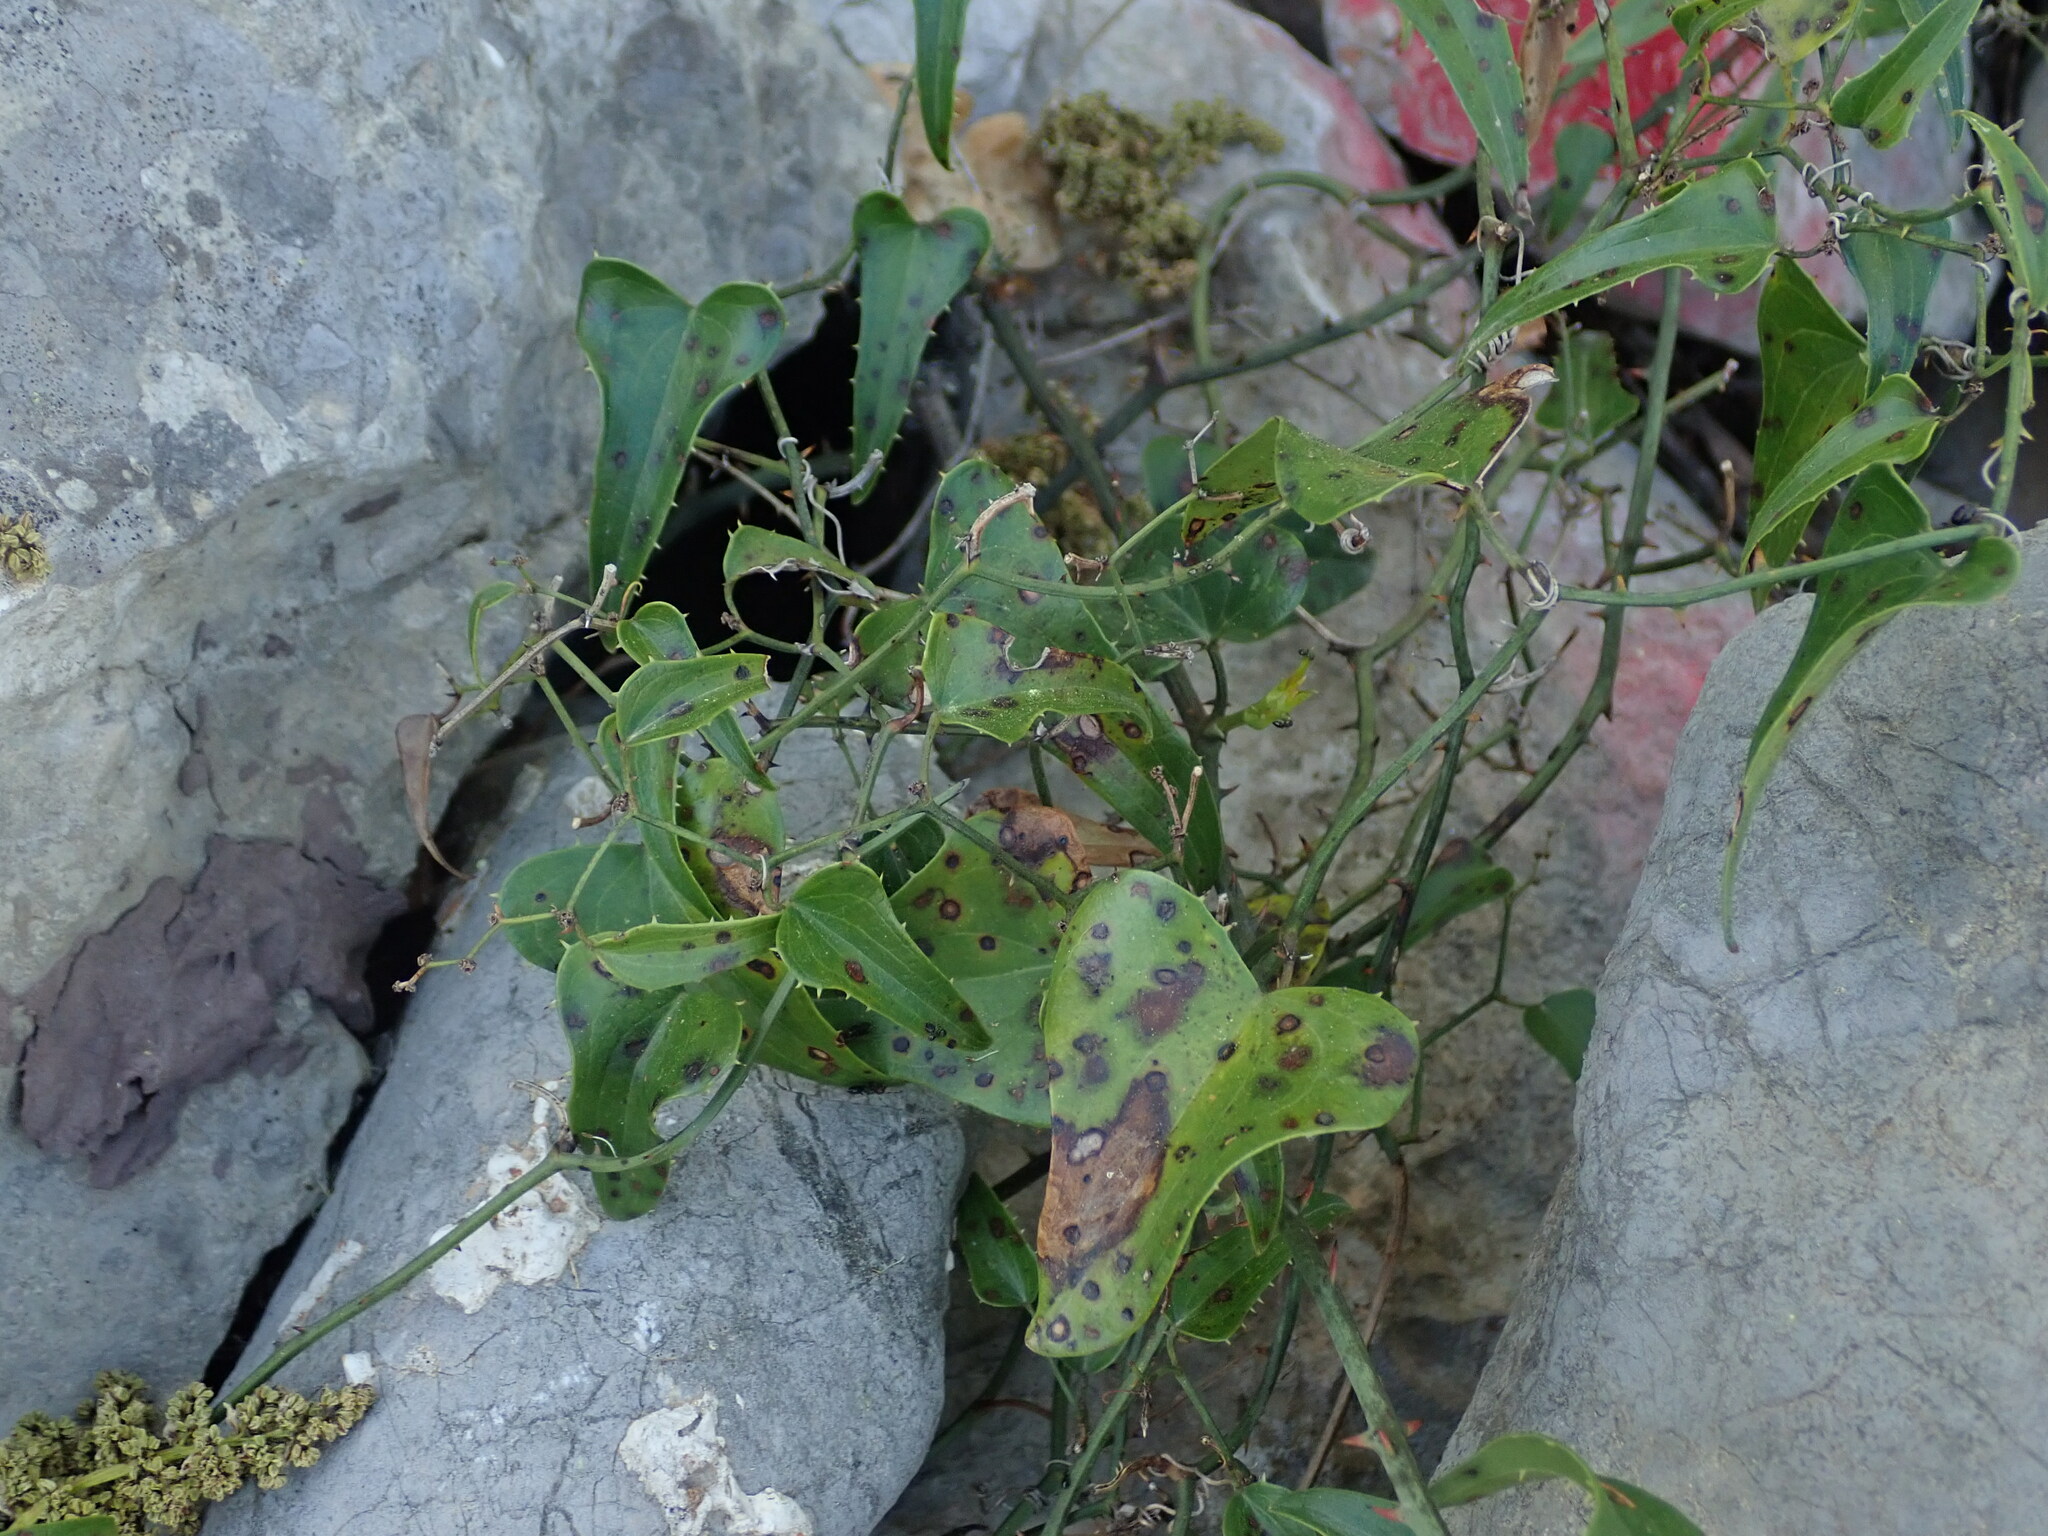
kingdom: Plantae
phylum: Tracheophyta
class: Liliopsida
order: Liliales
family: Smilacaceae
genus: Smilax
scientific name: Smilax aspera
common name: Common smilax
